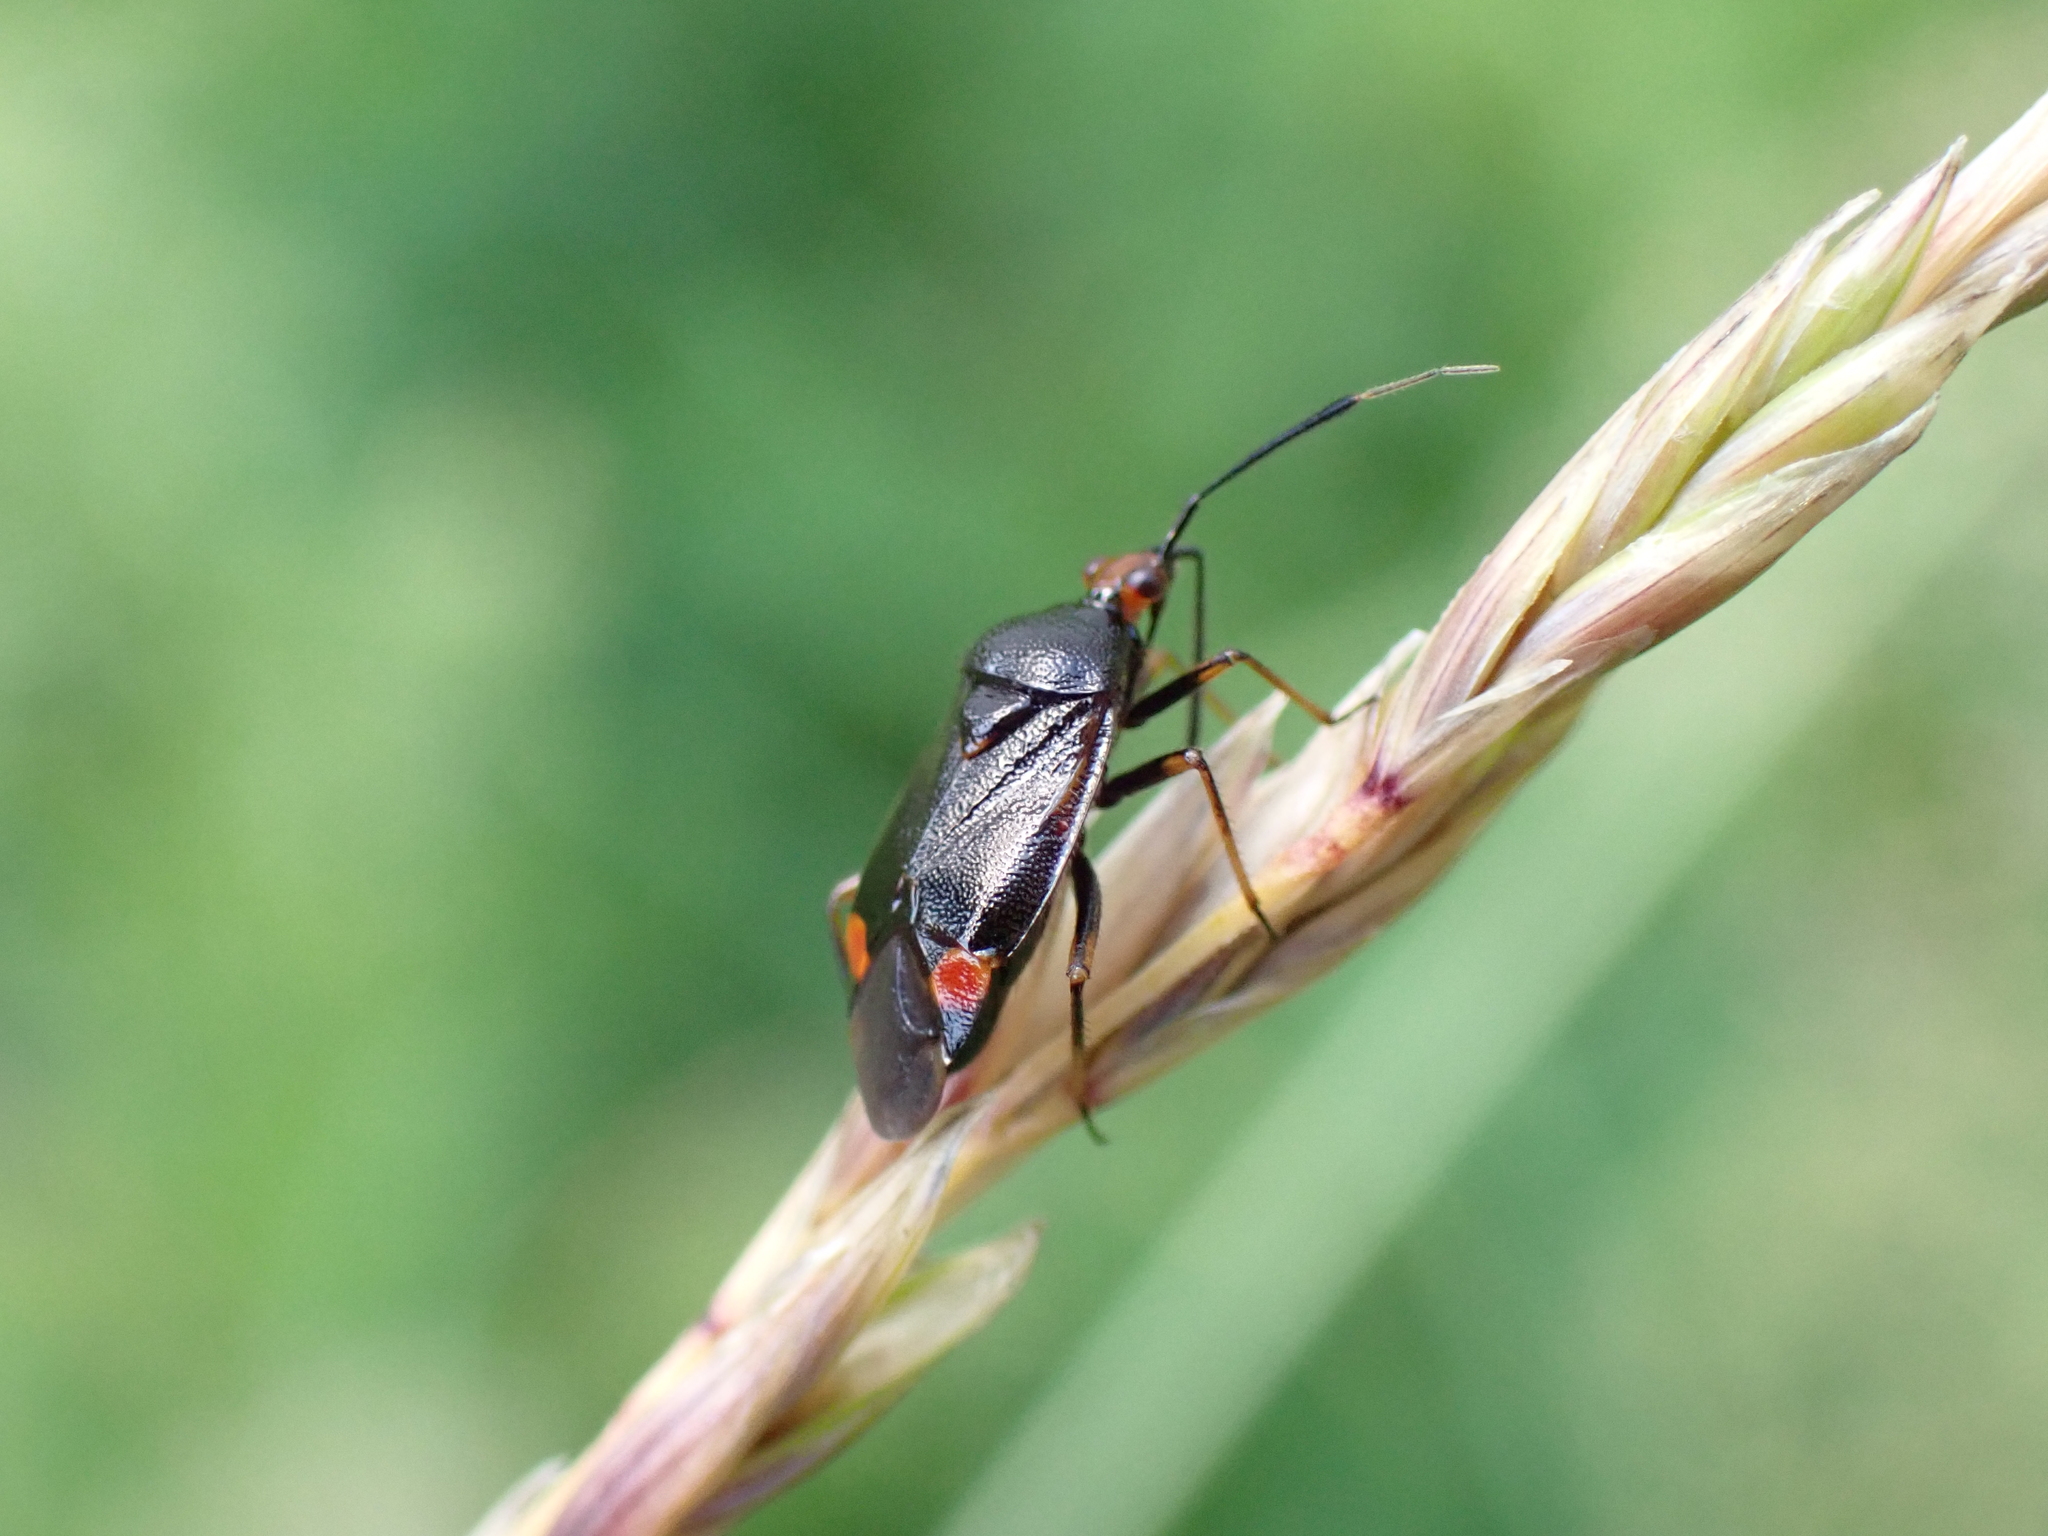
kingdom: Animalia
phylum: Arthropoda
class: Insecta
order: Hemiptera
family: Miridae
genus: Deraeocoris
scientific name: Deraeocoris ruber
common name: Plant bug
